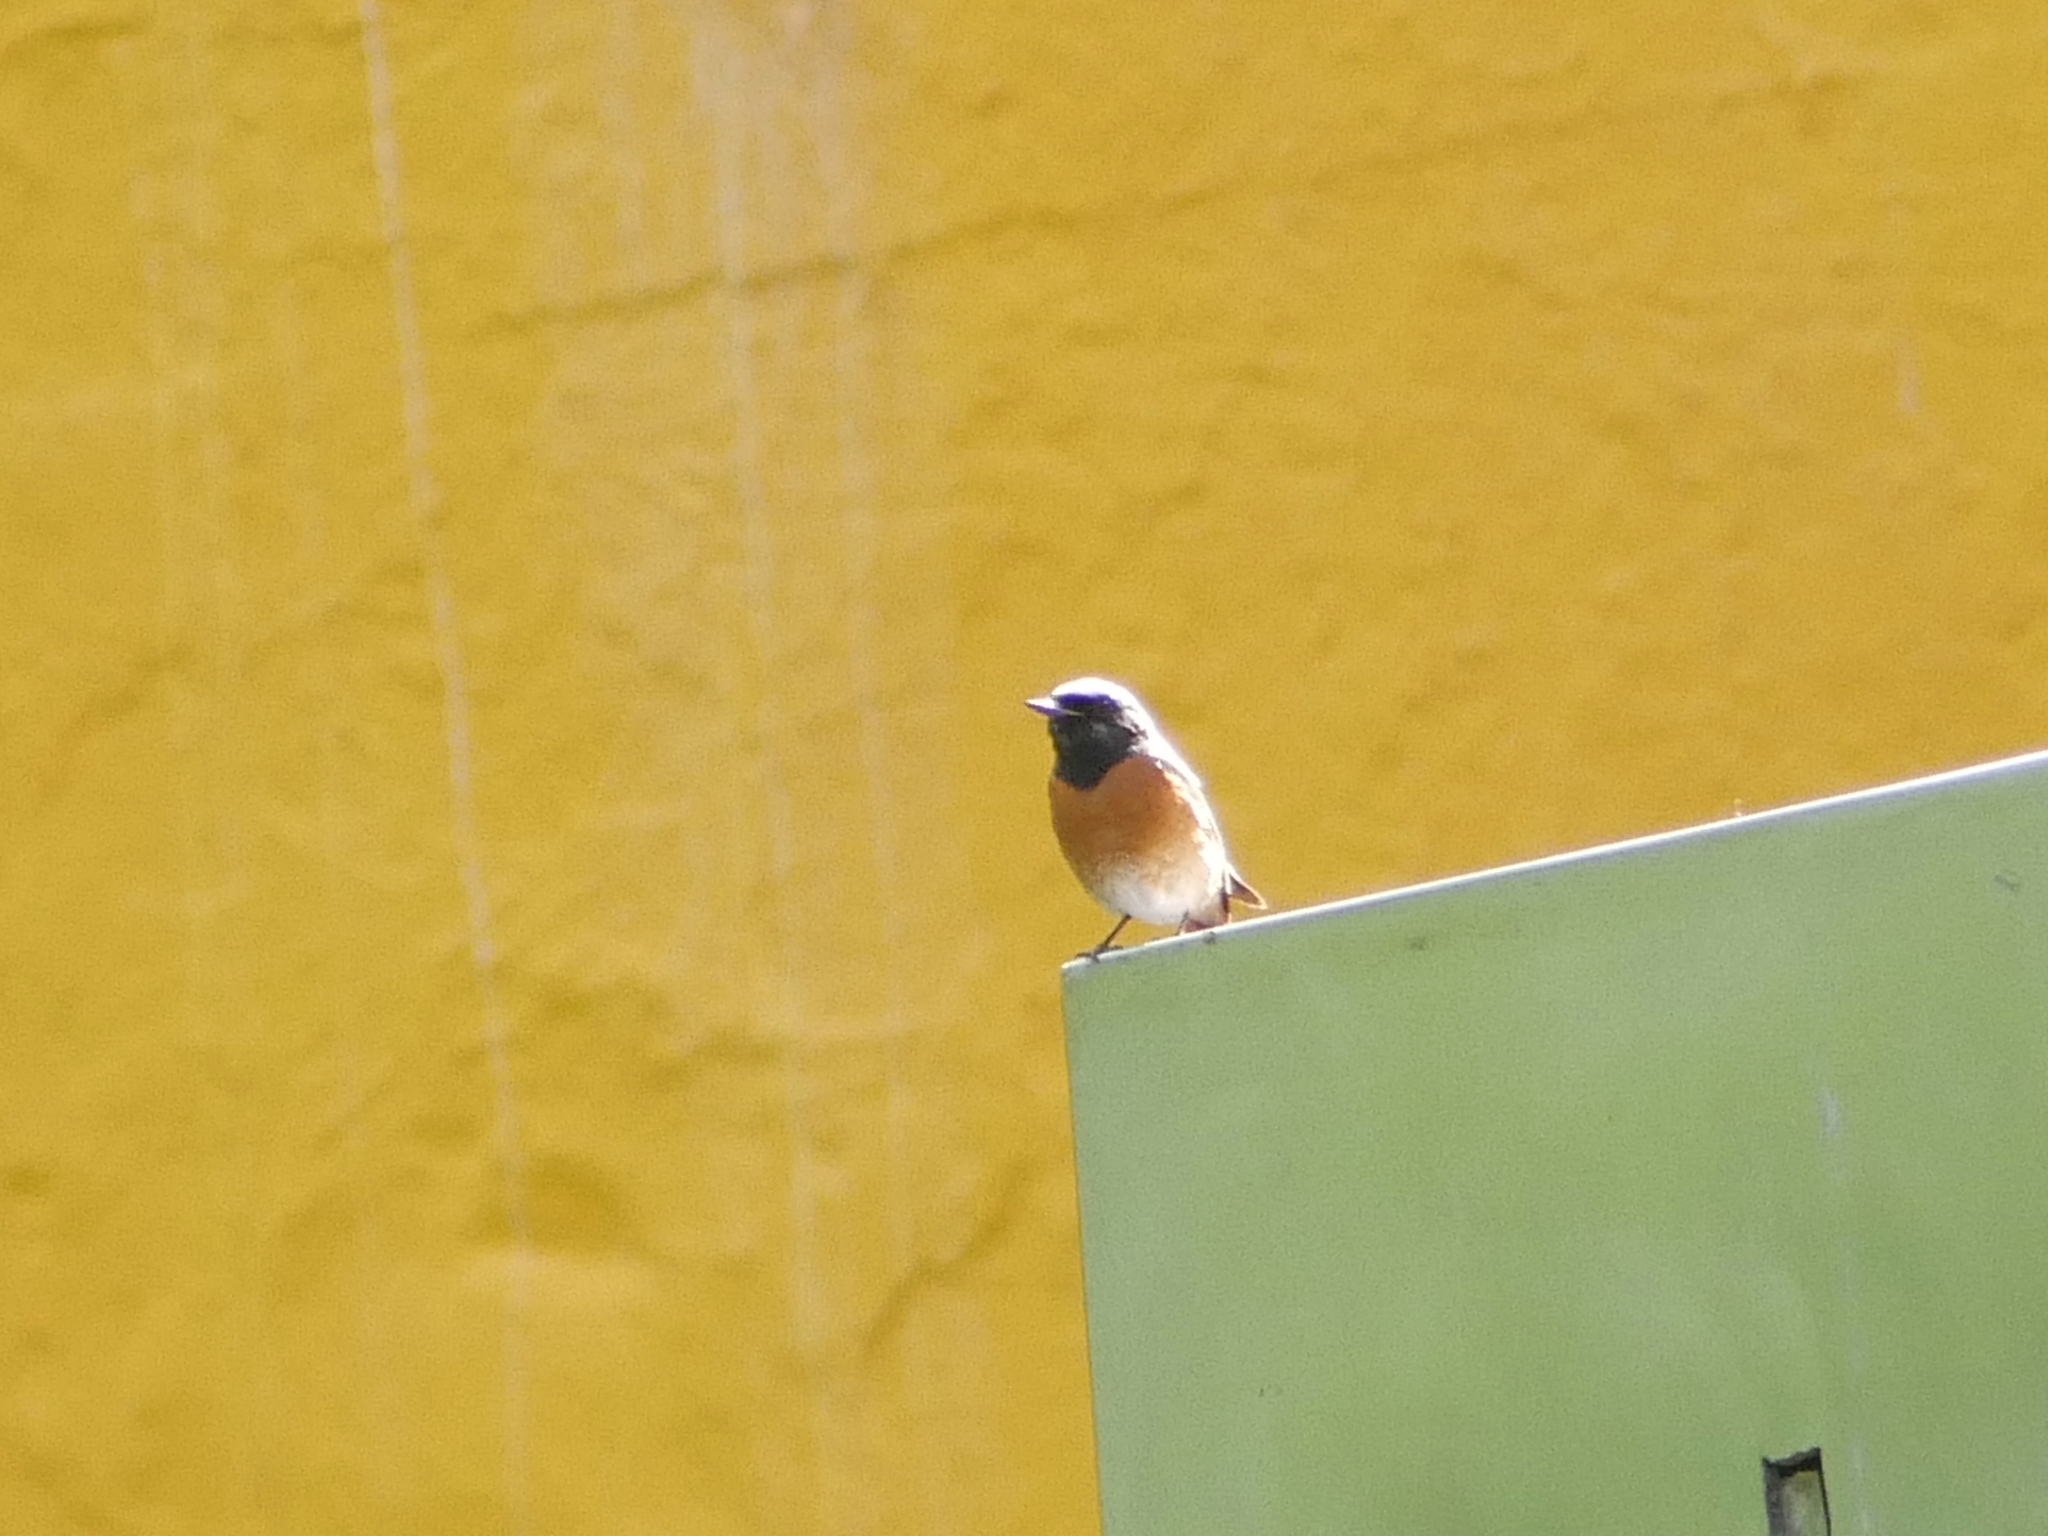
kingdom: Animalia
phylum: Chordata
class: Aves
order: Passeriformes
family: Muscicapidae
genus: Phoenicurus
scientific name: Phoenicurus phoenicurus
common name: Common redstart
